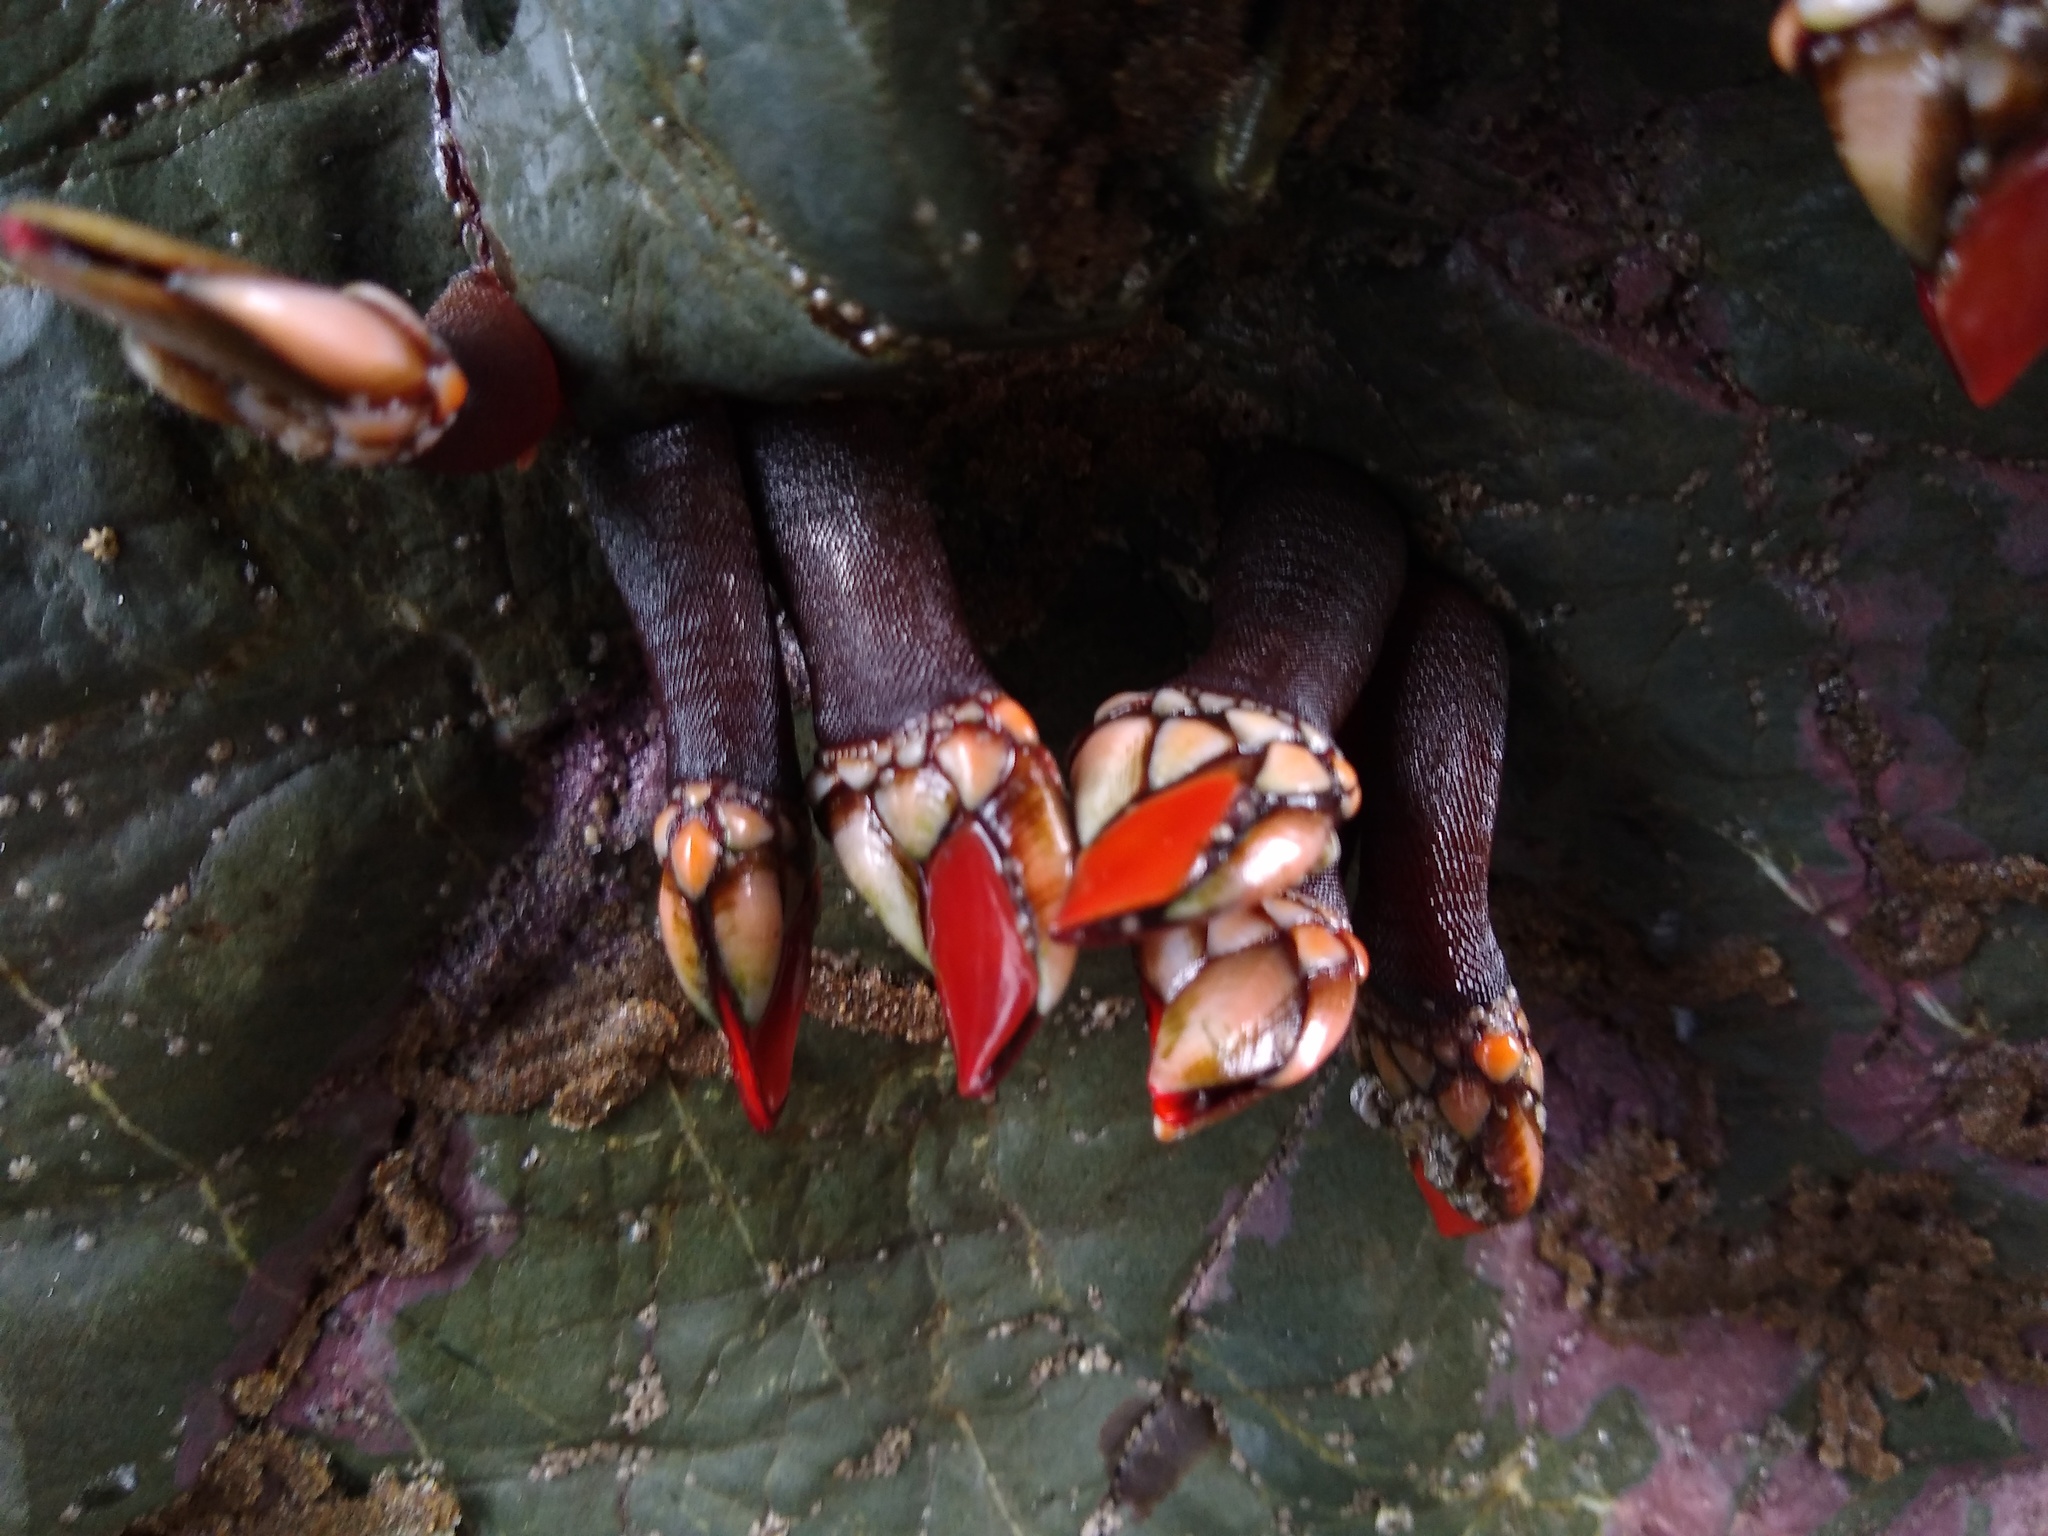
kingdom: Animalia
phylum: Arthropoda
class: Maxillopoda
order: Pedunculata
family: Pollicipedidae
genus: Pollicipes
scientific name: Pollicipes elegans
